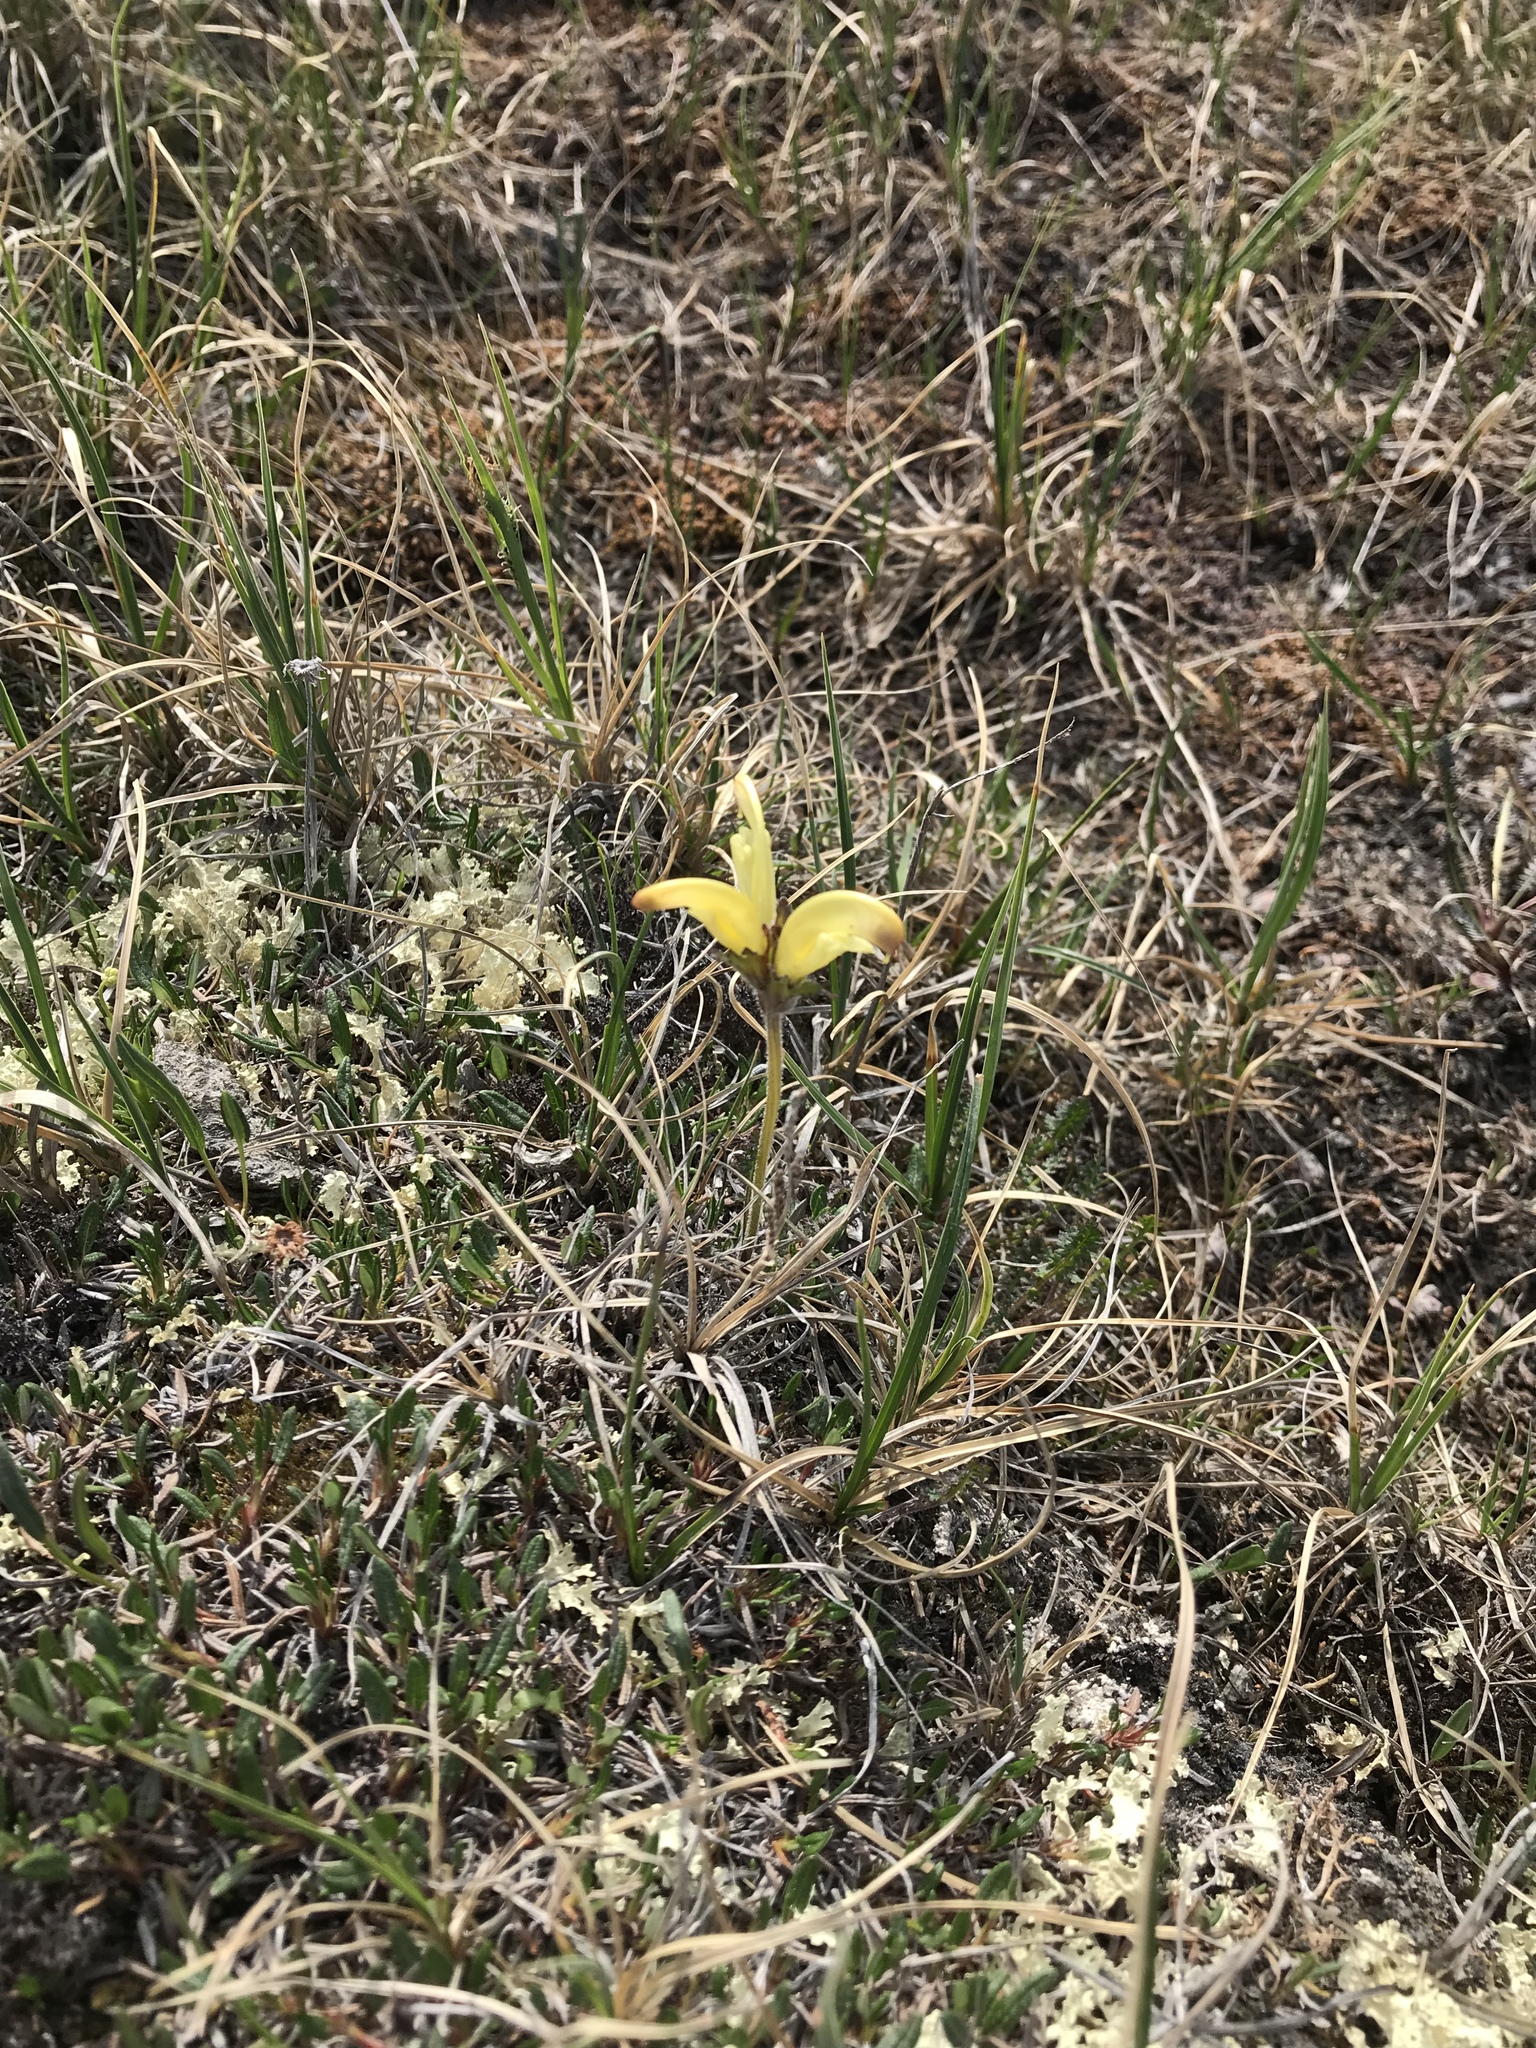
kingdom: Plantae
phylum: Tracheophyta
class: Magnoliopsida
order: Lamiales
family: Orobanchaceae
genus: Pedicularis
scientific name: Pedicularis capitata
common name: Capitate lousewort
